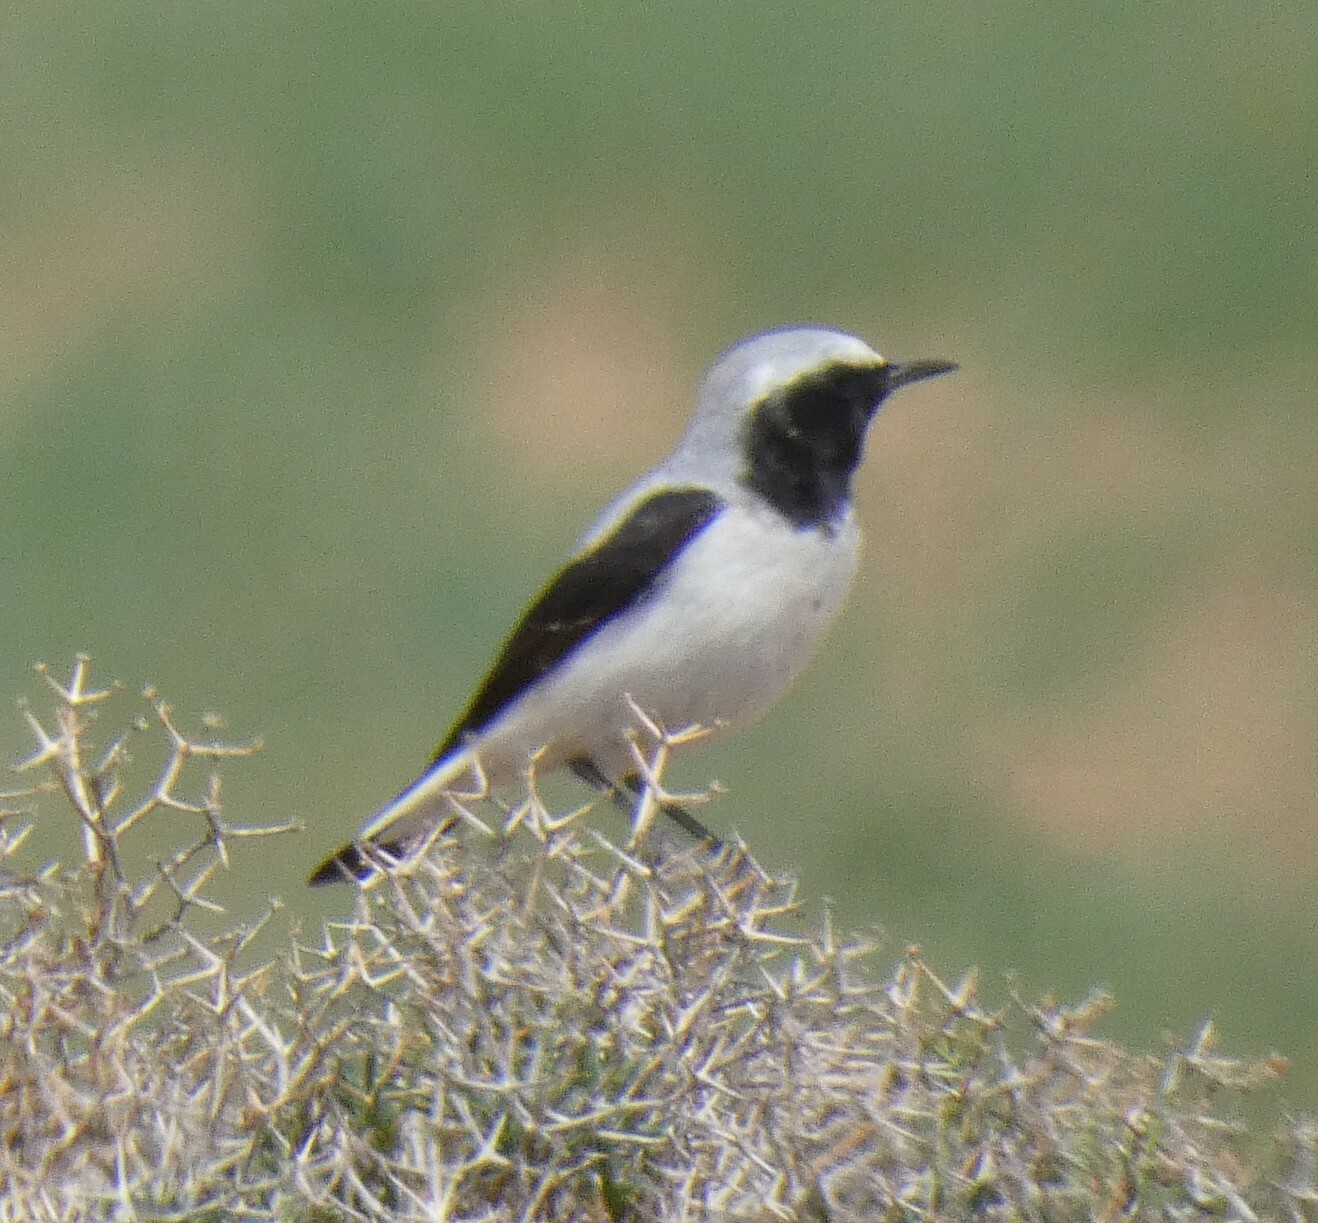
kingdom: Animalia
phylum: Chordata
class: Aves
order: Passeriformes
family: Muscicapidae
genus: Oenanthe
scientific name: Oenanthe oenanthe
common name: Northern wheatear
